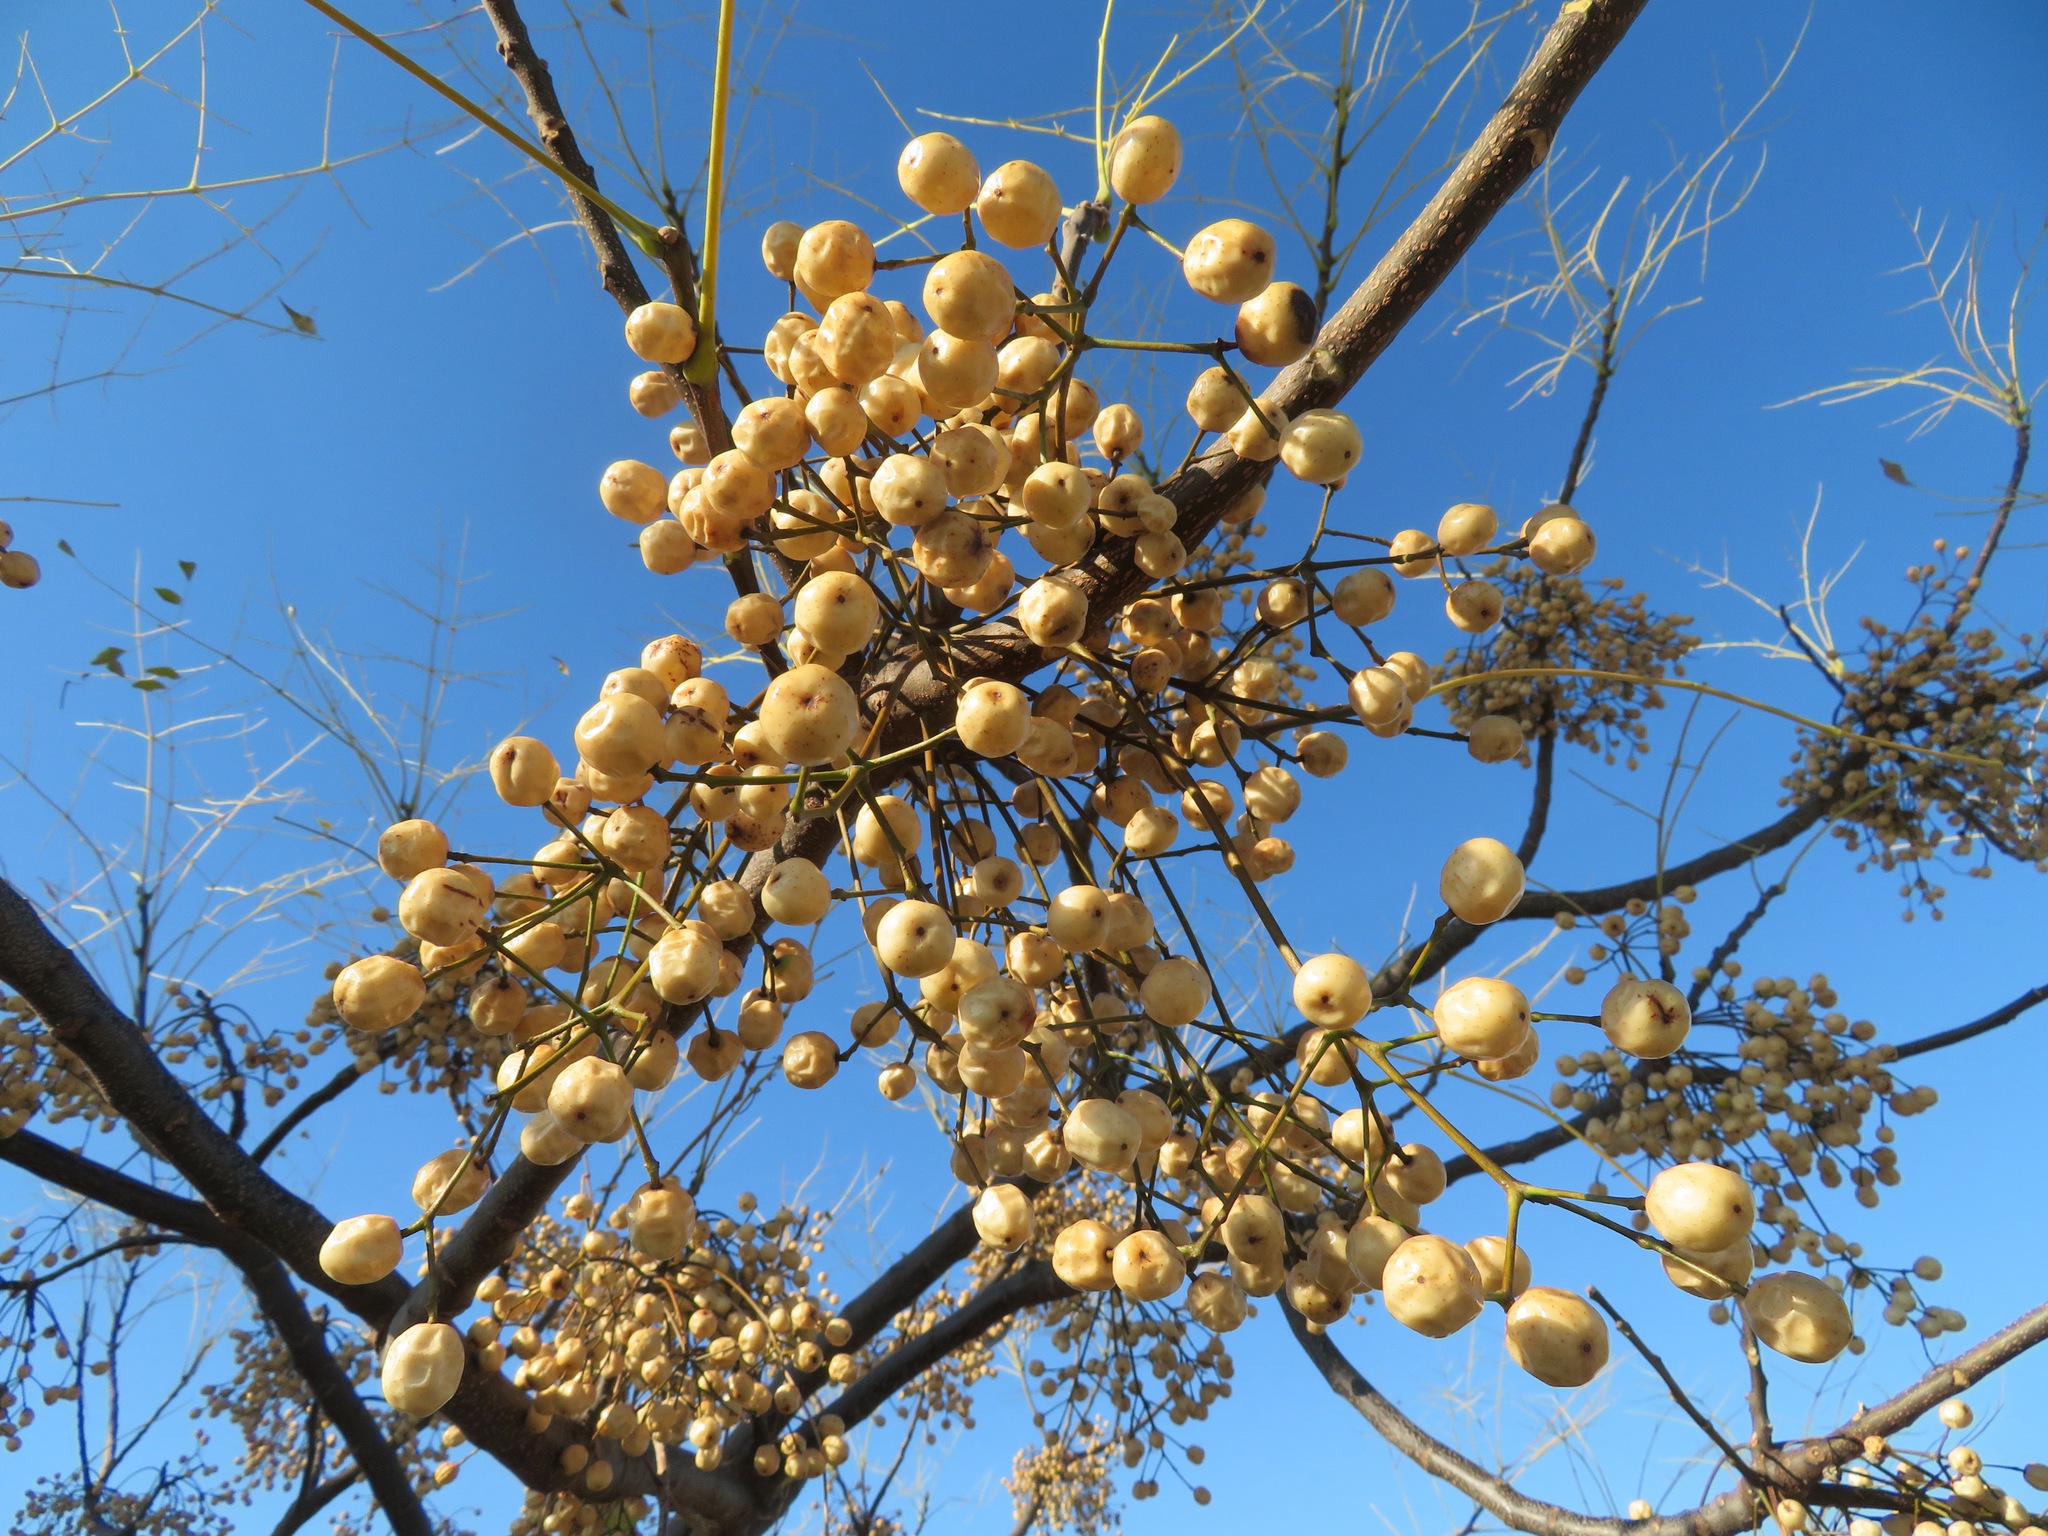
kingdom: Plantae
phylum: Tracheophyta
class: Magnoliopsida
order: Sapindales
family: Meliaceae
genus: Melia
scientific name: Melia azedarach
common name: Chinaberrytree
